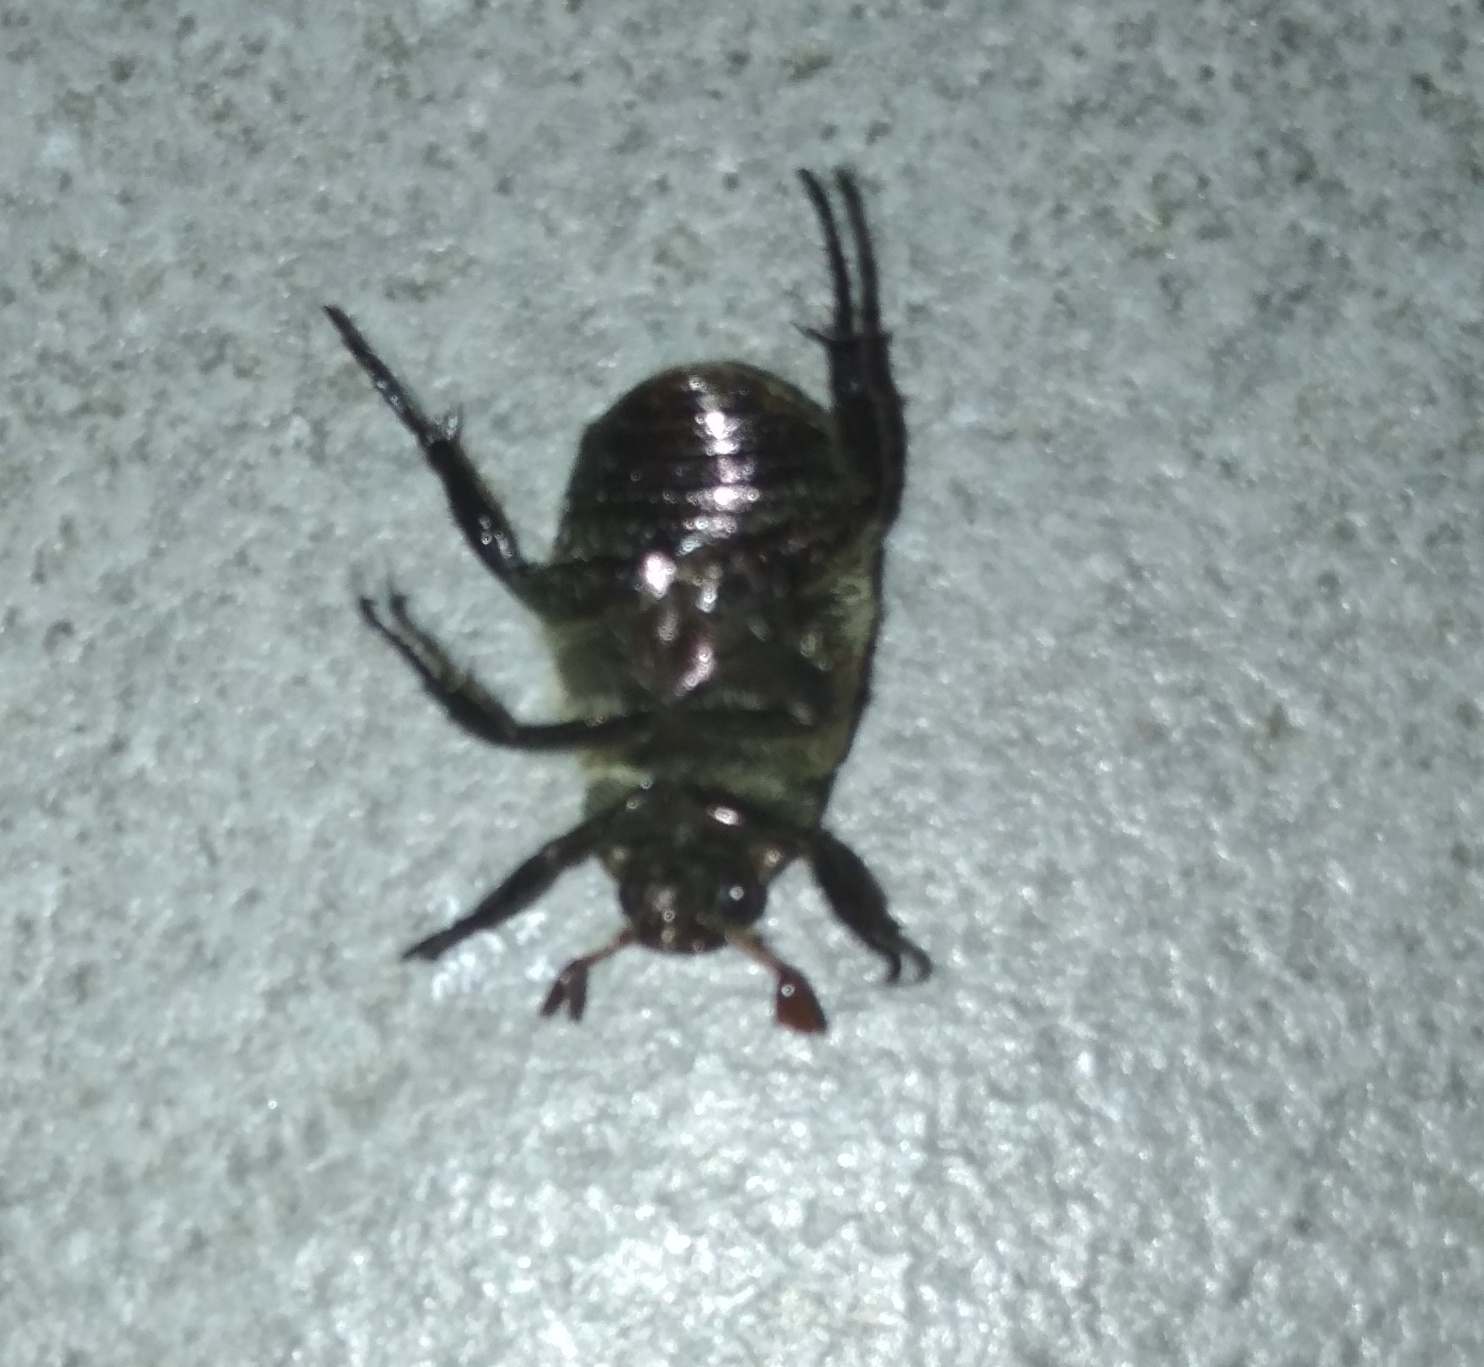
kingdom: Animalia
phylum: Arthropoda
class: Insecta
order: Coleoptera
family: Scarabaeidae
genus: Mimela
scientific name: Mimela junii
